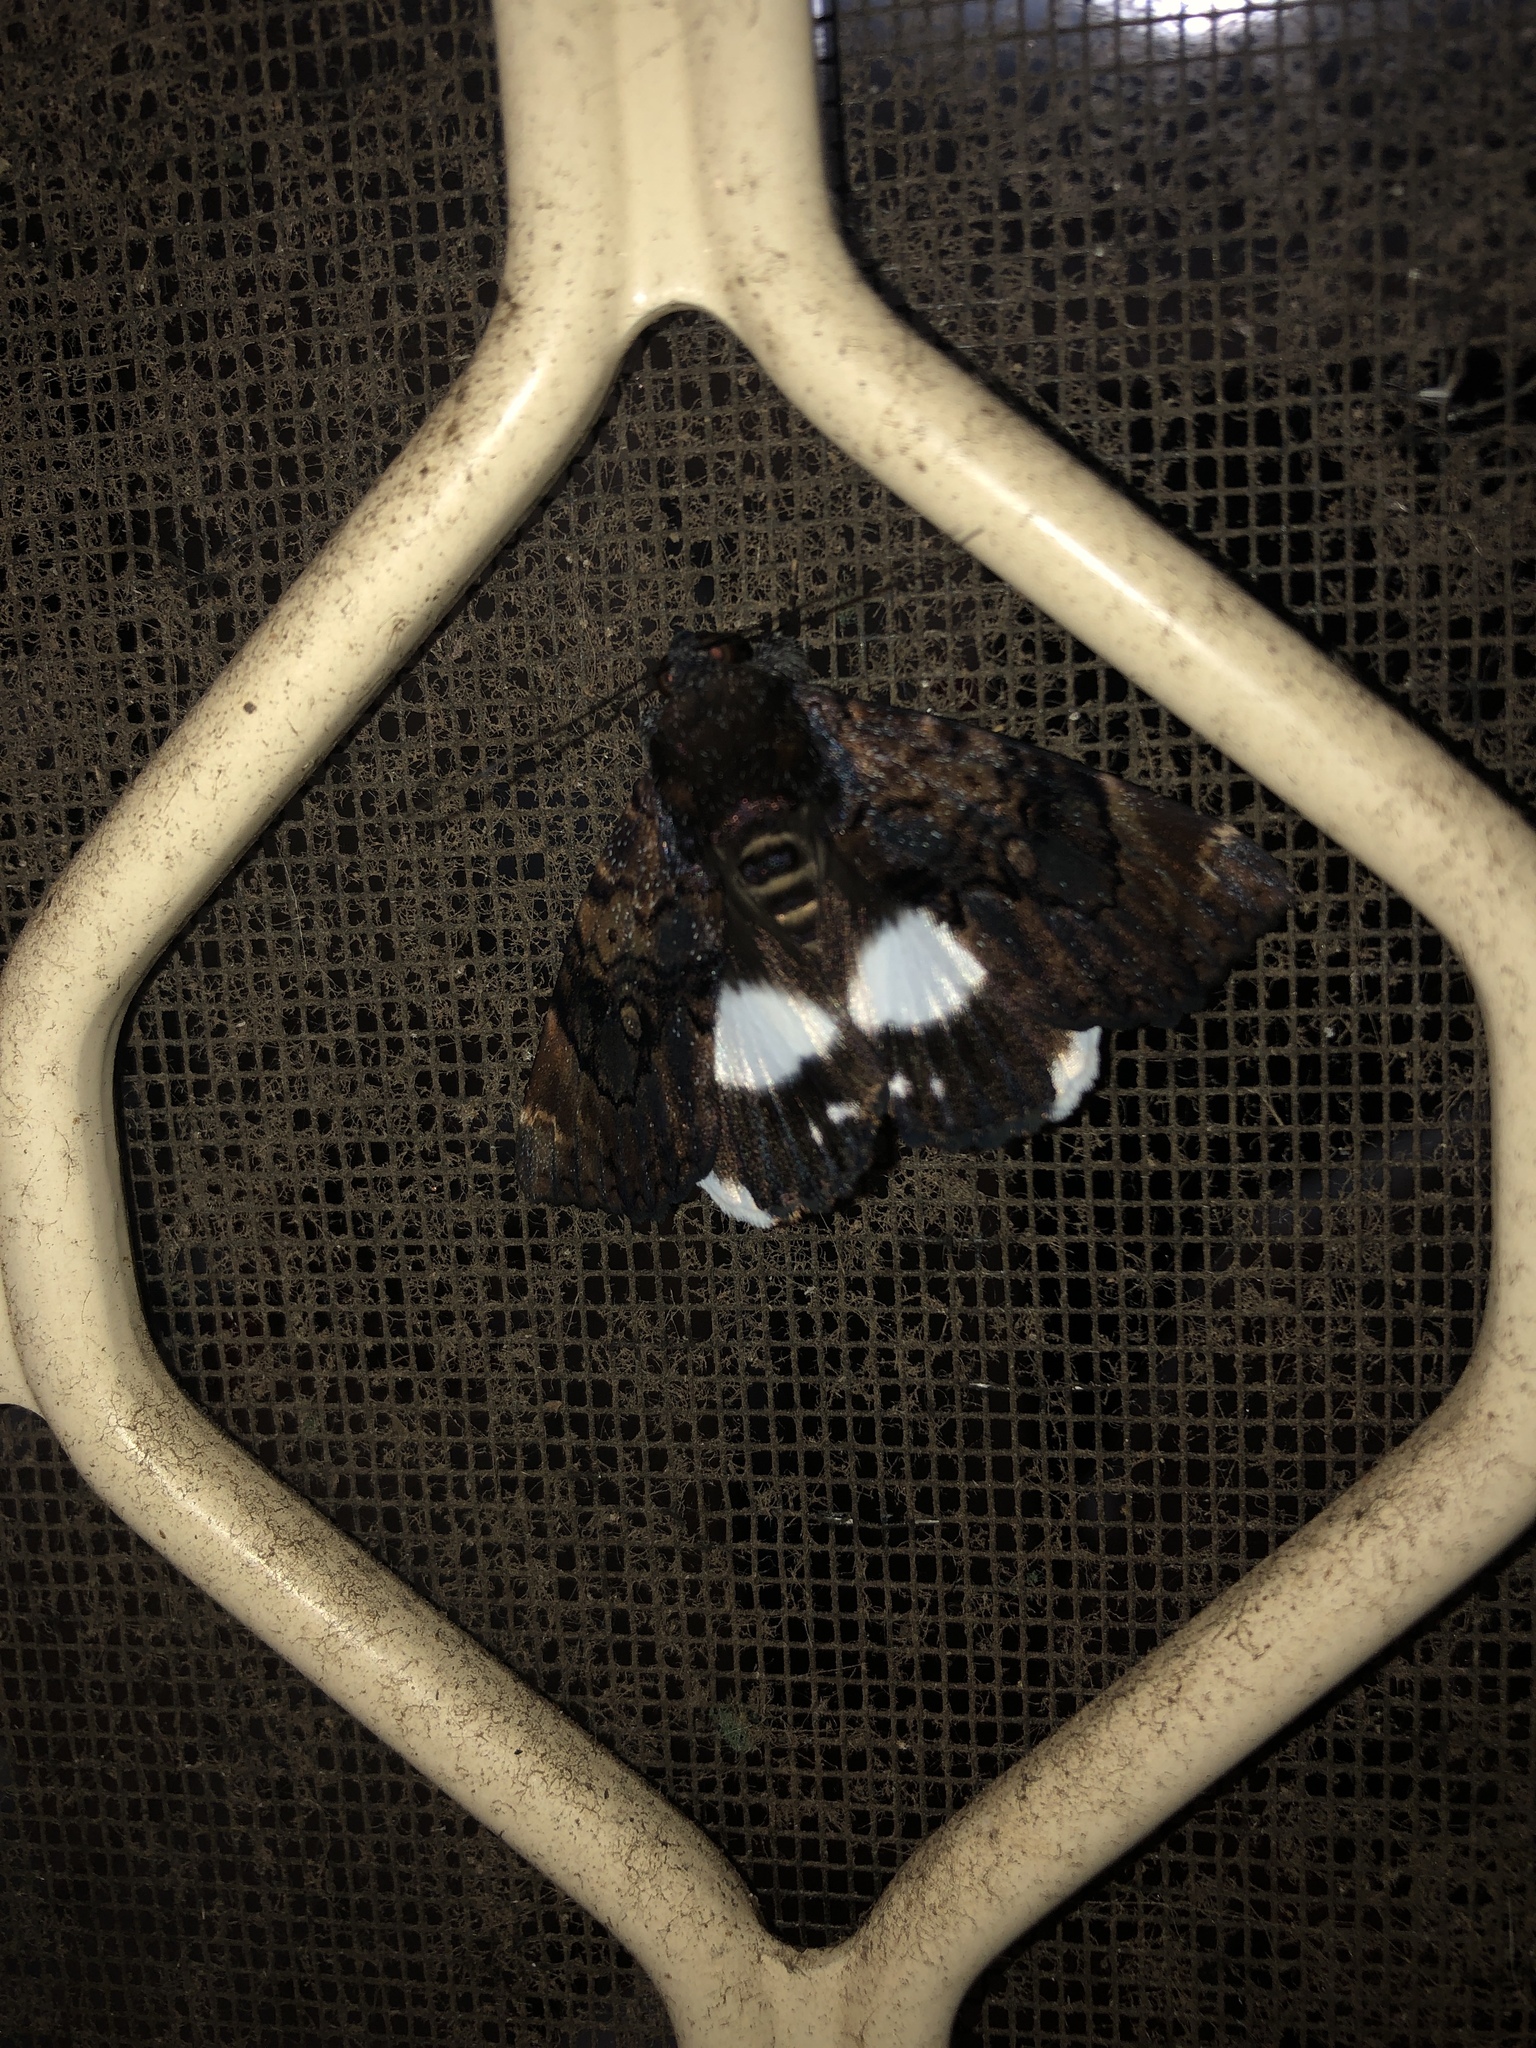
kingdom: Animalia
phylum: Arthropoda
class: Insecta
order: Lepidoptera
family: Erebidae
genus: Catephia
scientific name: Catephia linteola
